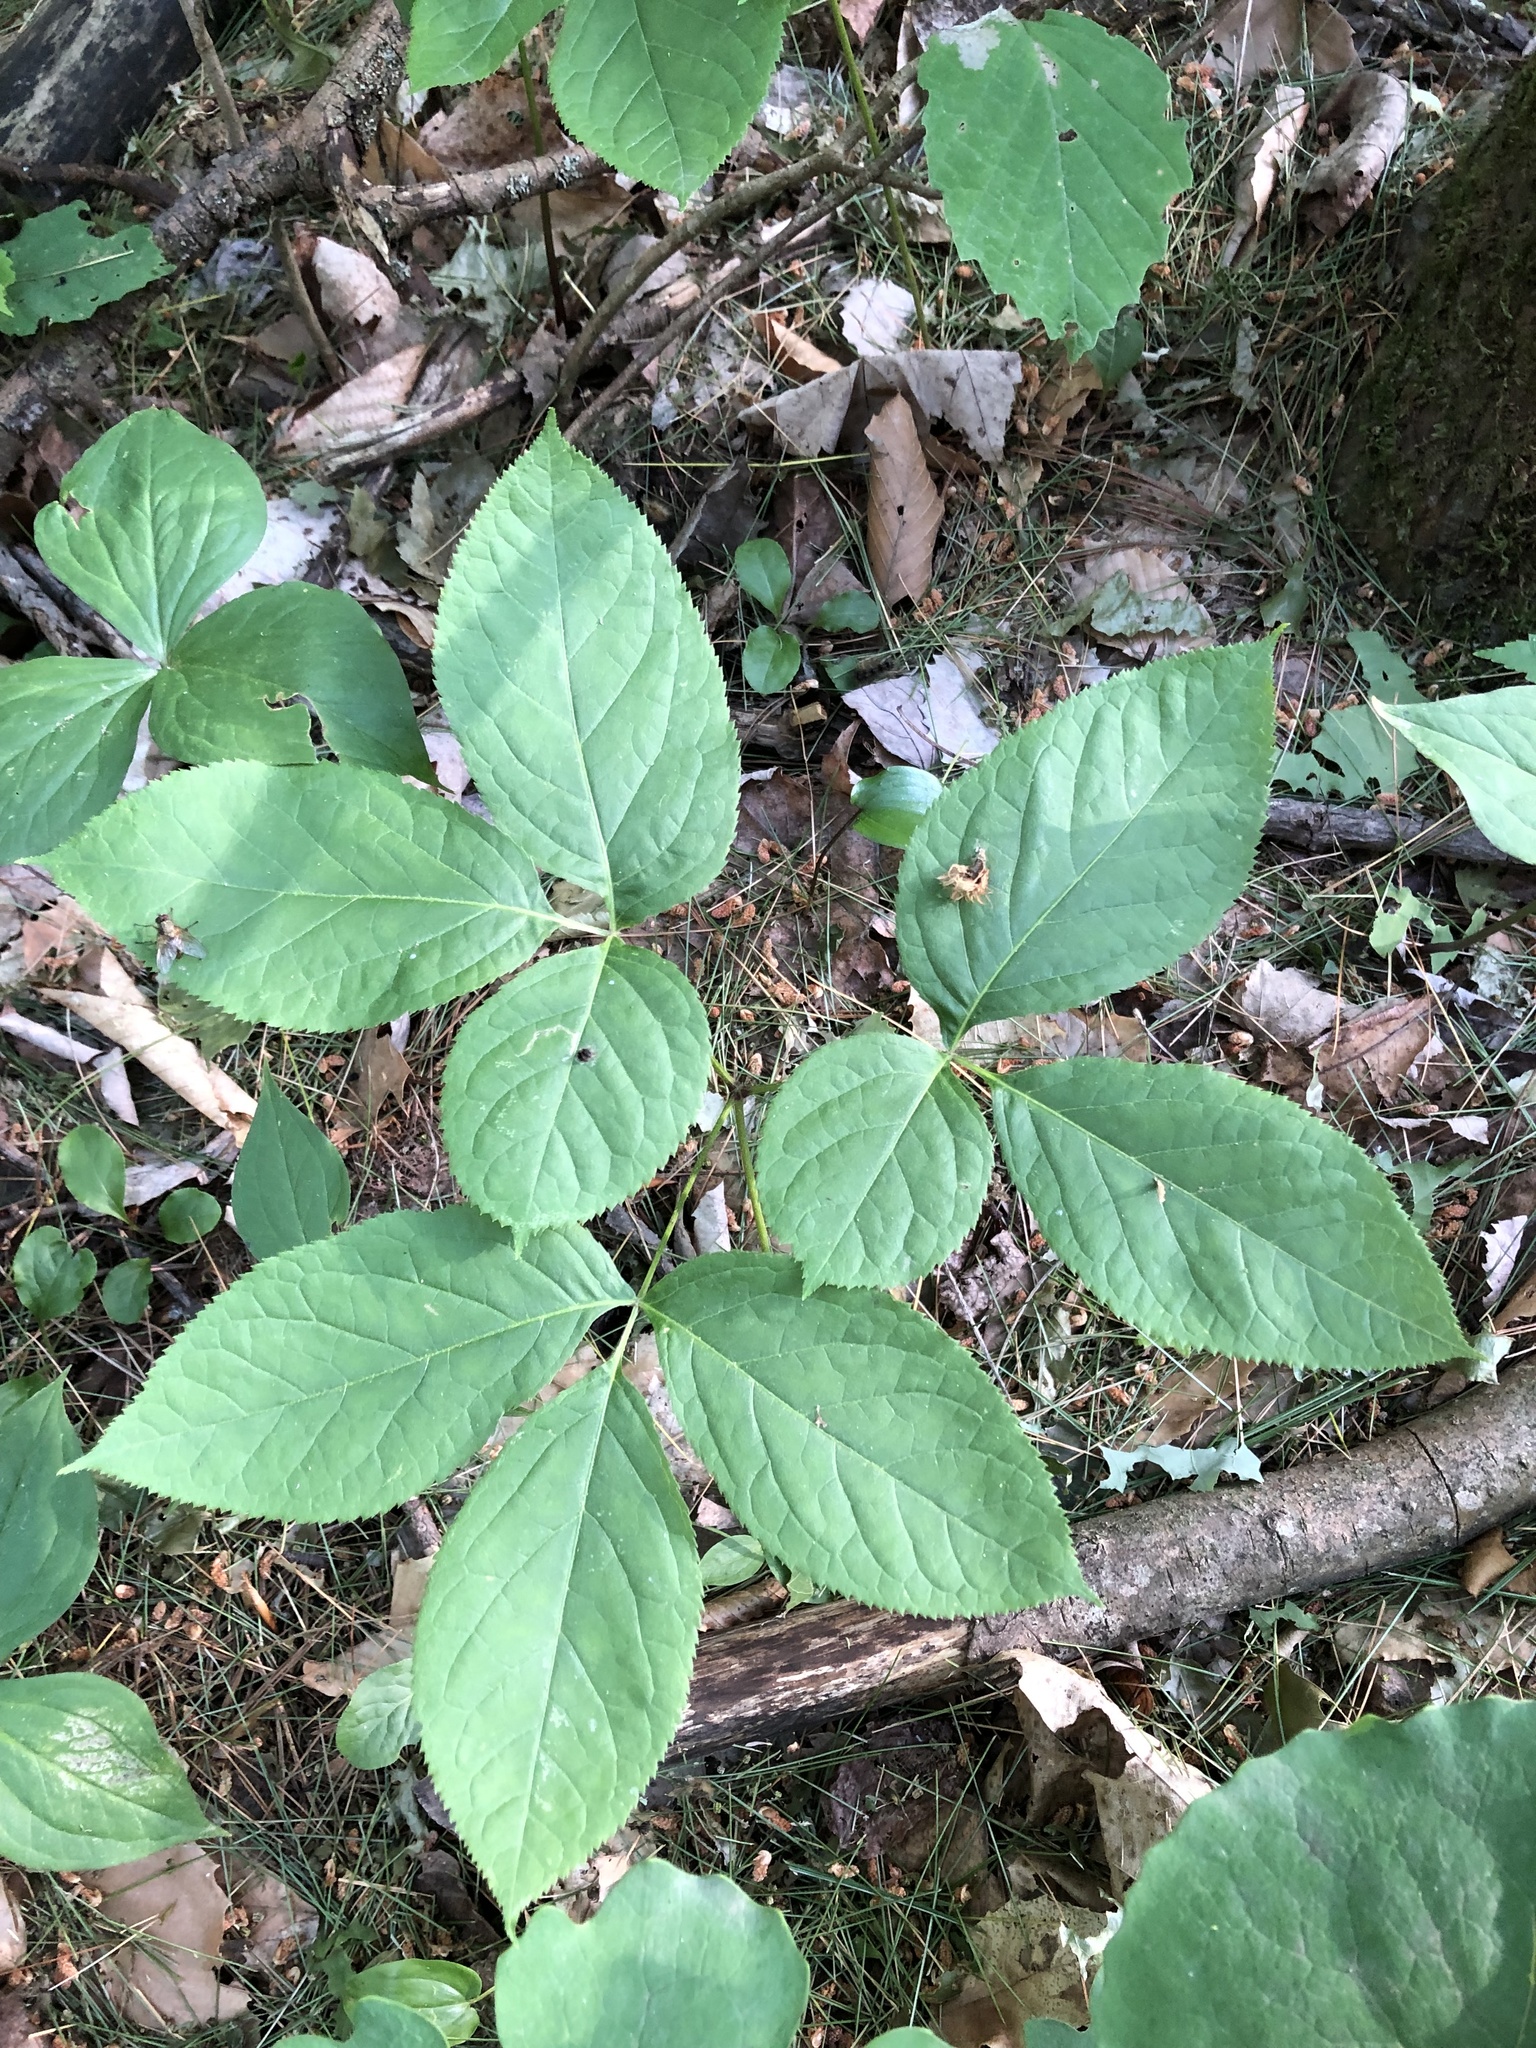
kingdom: Plantae
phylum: Tracheophyta
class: Magnoliopsida
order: Apiales
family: Araliaceae
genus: Aralia
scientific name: Aralia nudicaulis
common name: Wild sarsaparilla
